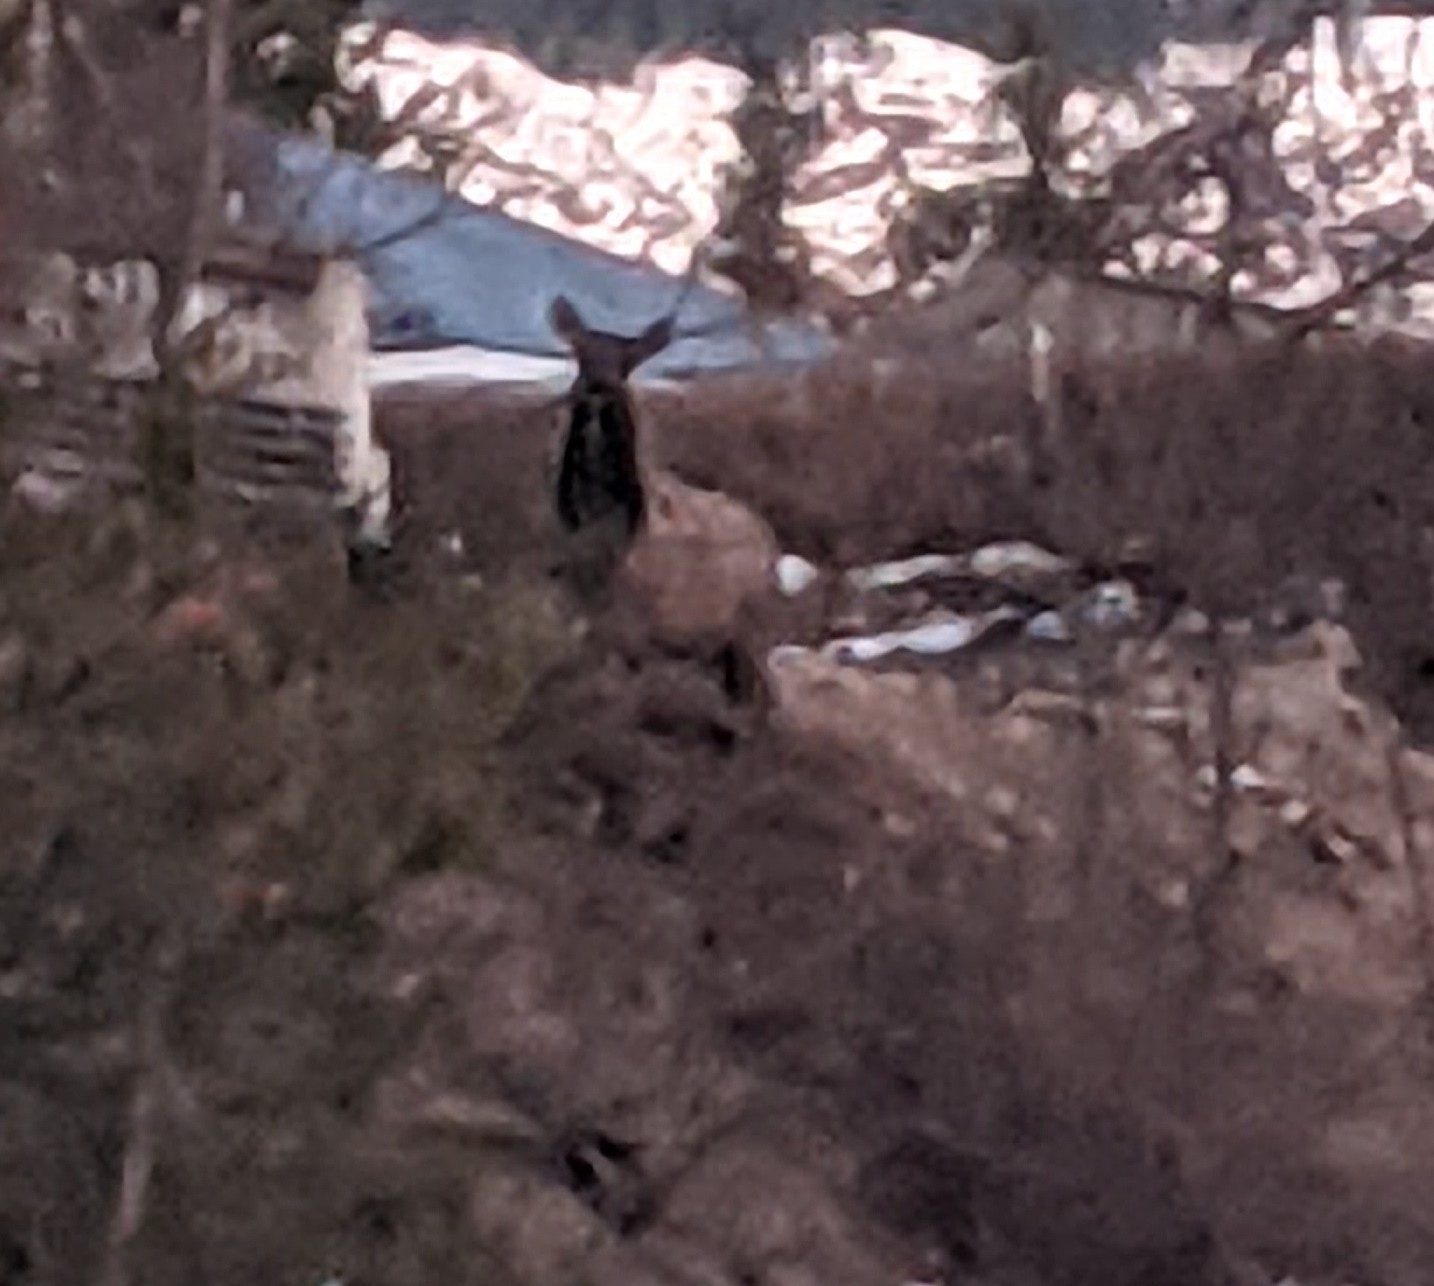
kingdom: Animalia
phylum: Chordata
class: Mammalia
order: Artiodactyla
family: Cervidae
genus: Cervus
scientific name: Cervus elaphus
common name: Red deer
